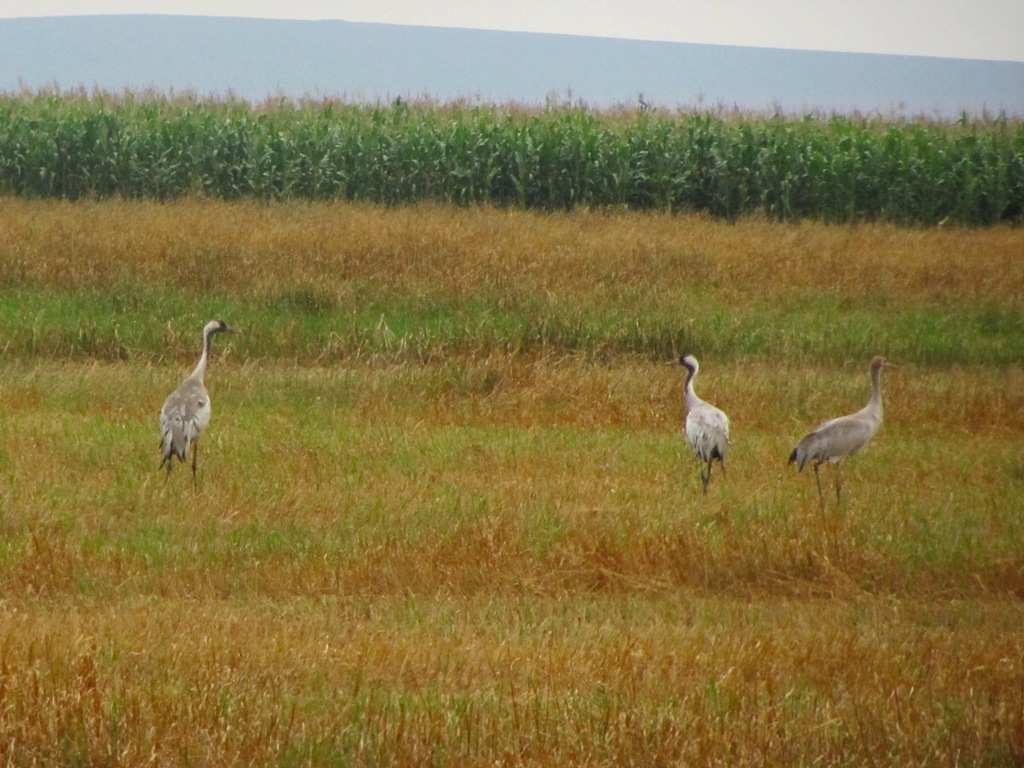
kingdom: Animalia
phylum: Chordata
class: Aves
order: Gruiformes
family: Gruidae
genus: Grus
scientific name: Grus grus
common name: Common crane
